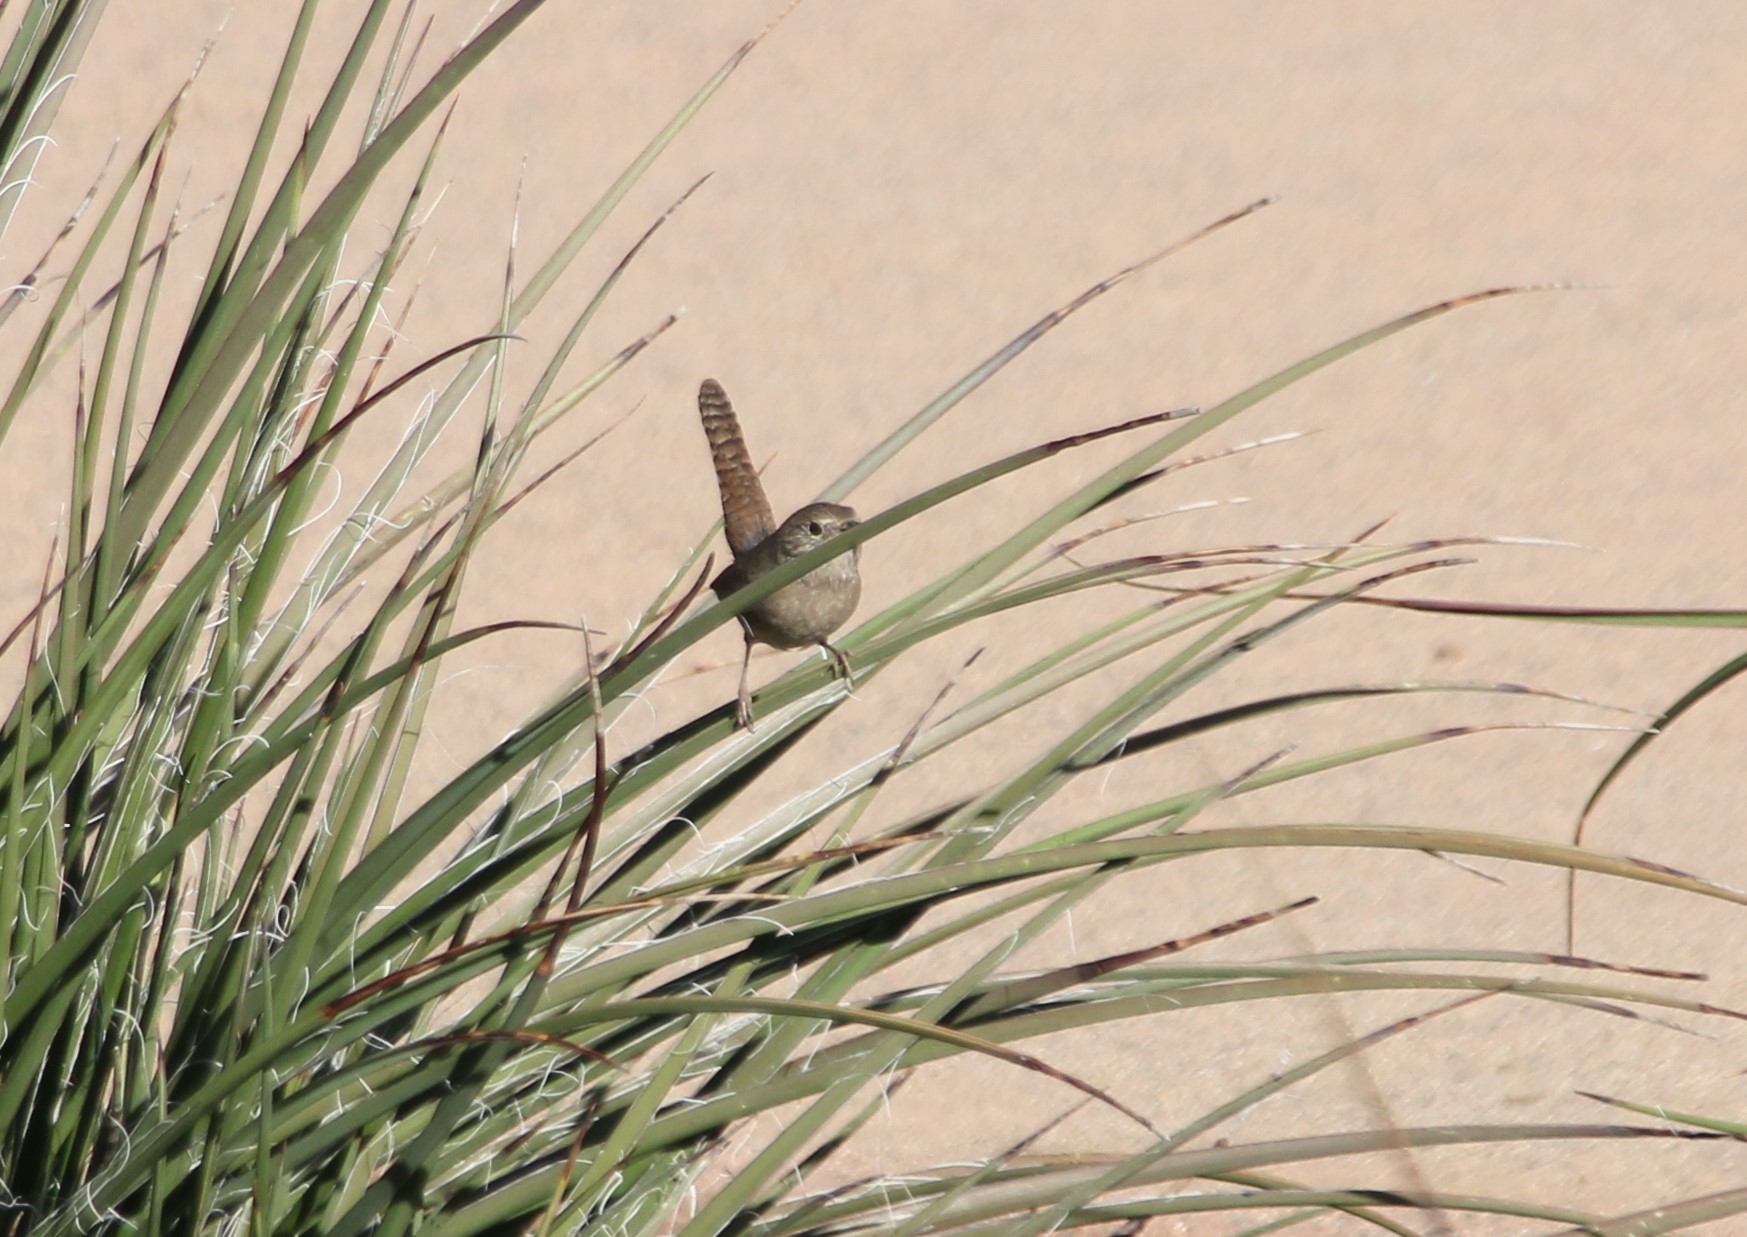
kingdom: Animalia
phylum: Chordata
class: Aves
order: Passeriformes
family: Troglodytidae
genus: Troglodytes
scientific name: Troglodytes aedon
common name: House wren
